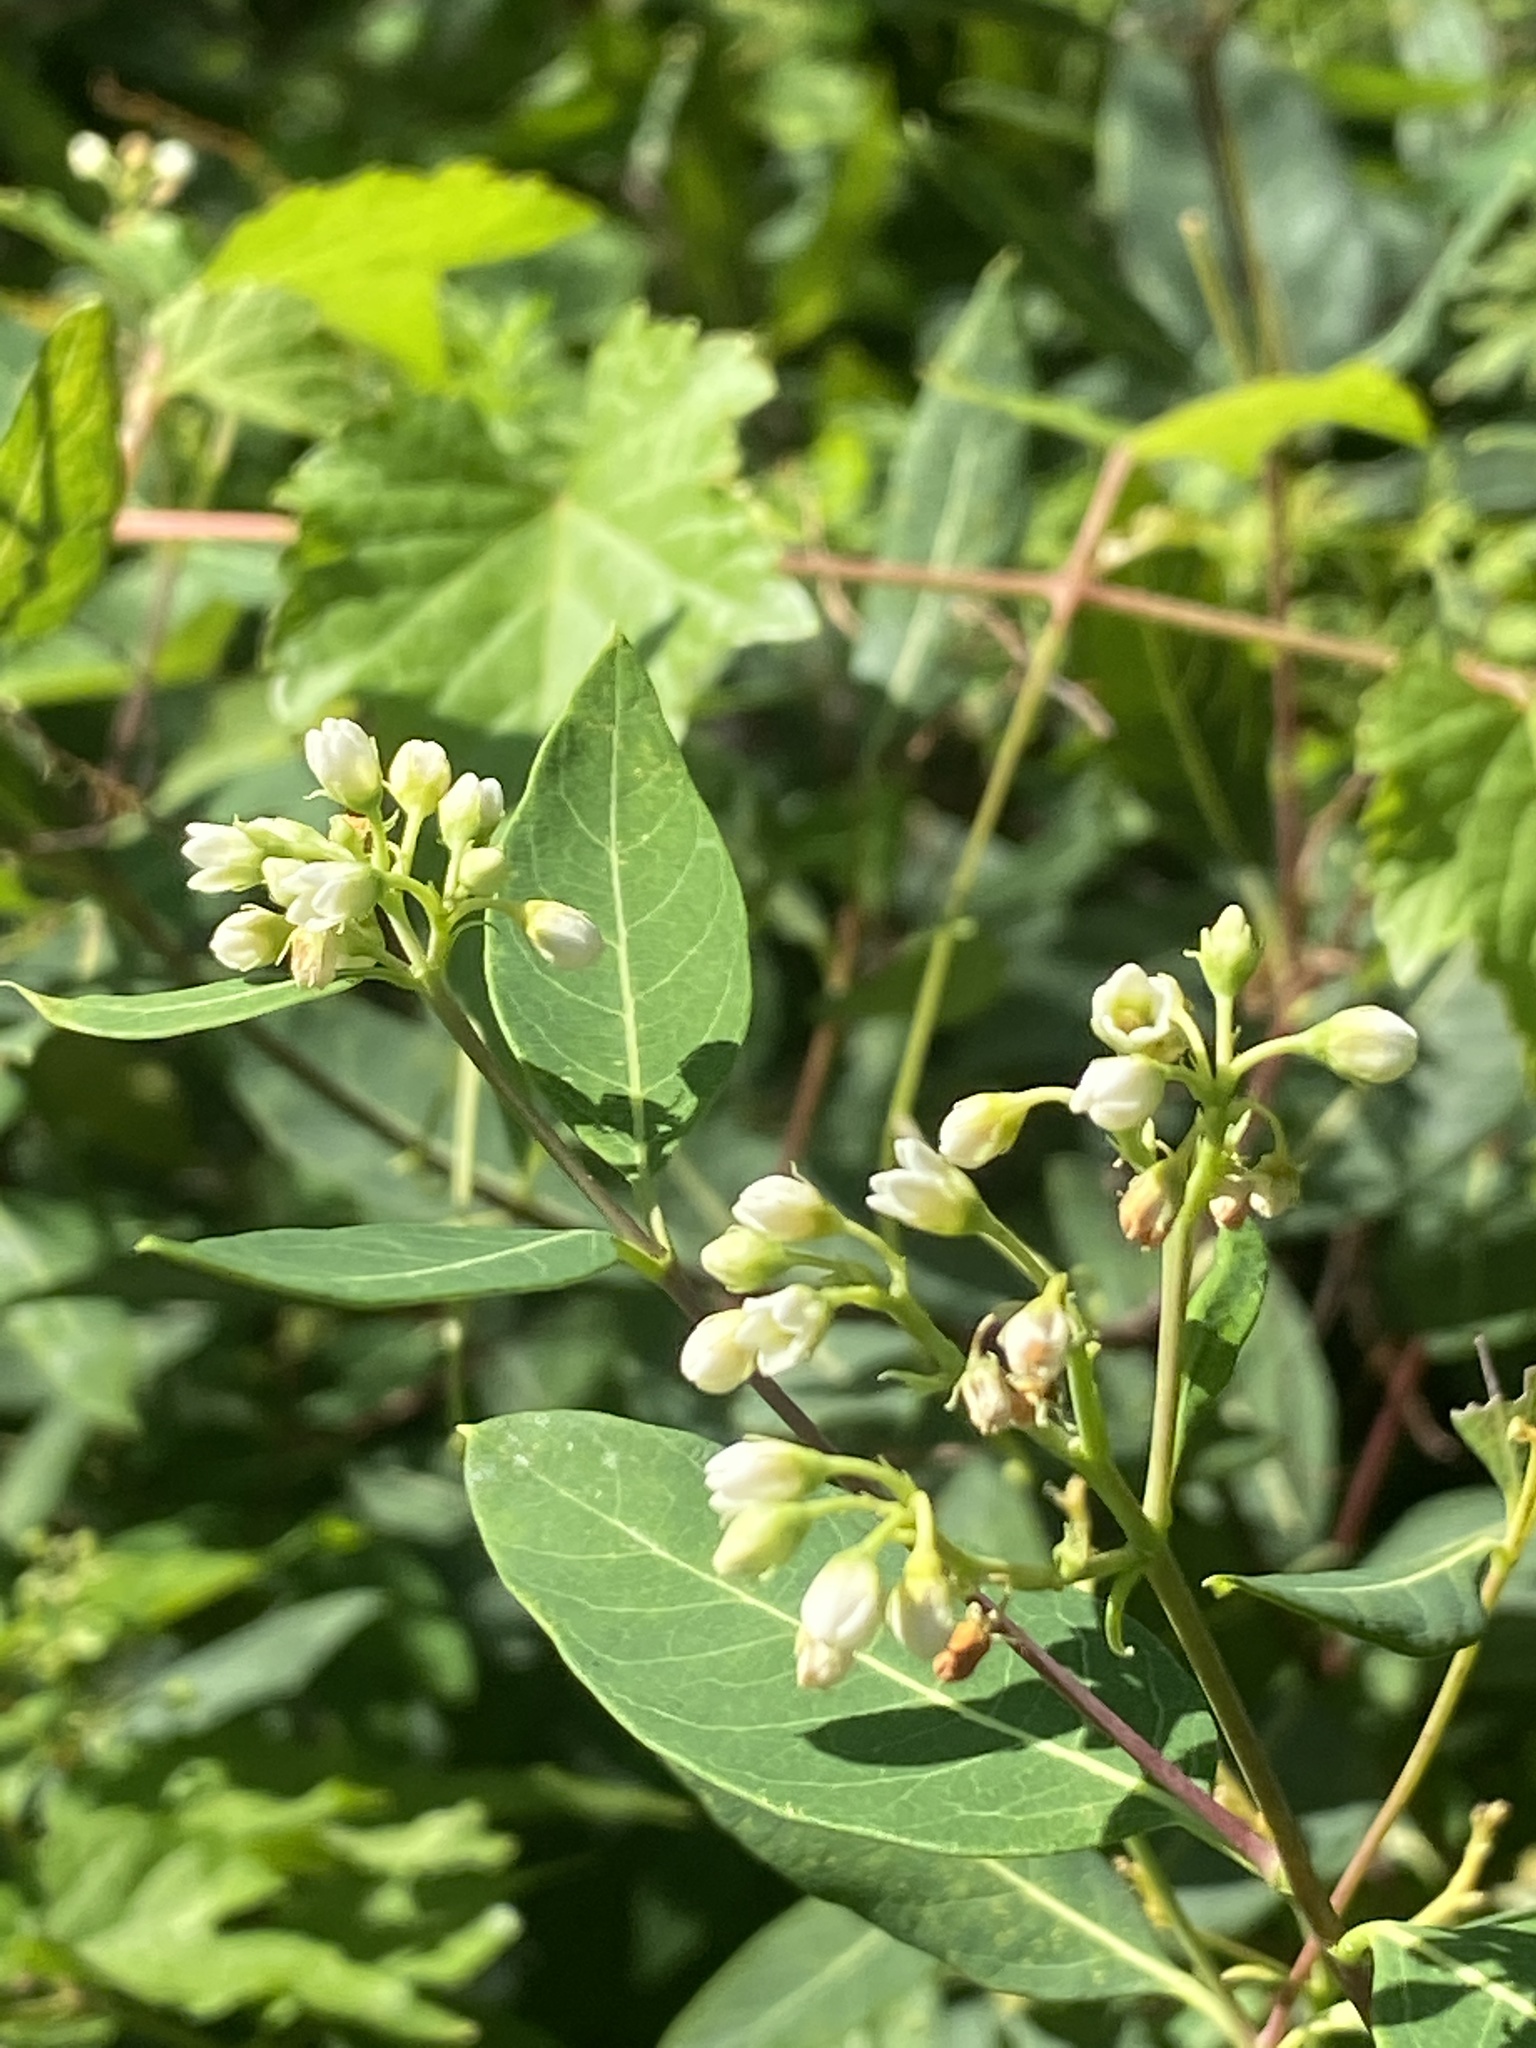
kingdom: Plantae
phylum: Tracheophyta
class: Magnoliopsida
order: Gentianales
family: Apocynaceae
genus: Apocynum
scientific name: Apocynum cannabinum
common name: Hemp dogbane
